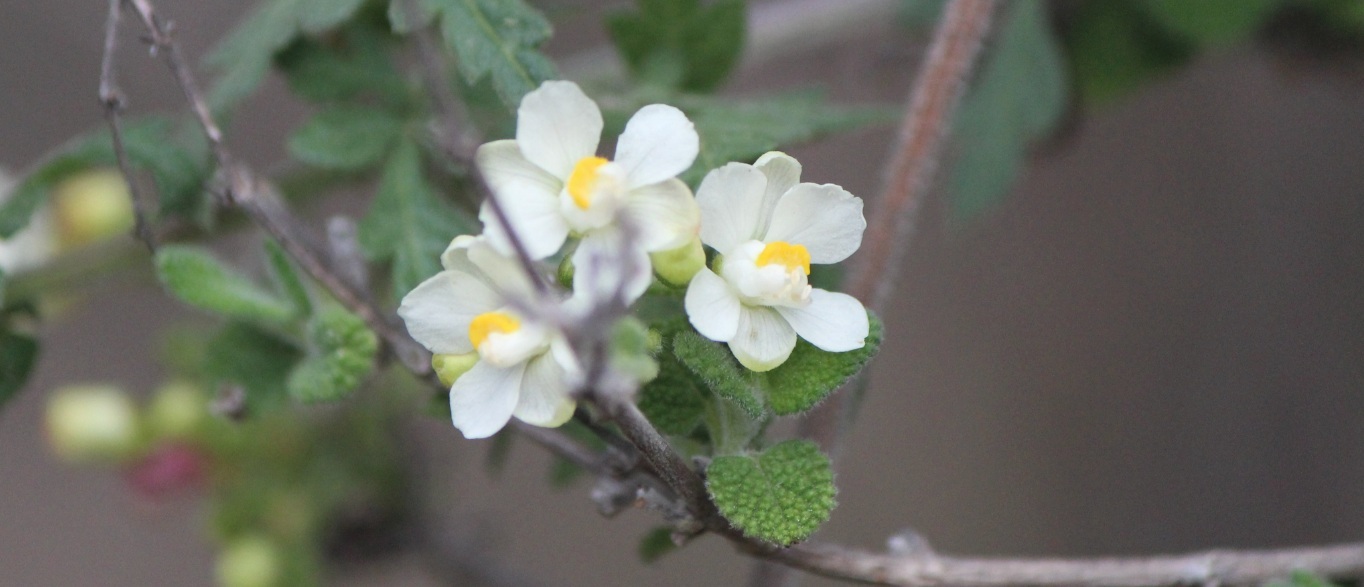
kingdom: Plantae
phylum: Tracheophyta
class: Magnoliopsida
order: Sapindales
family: Sapindaceae
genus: Cardiospermum
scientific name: Cardiospermum halicacabum
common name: Balloon vine
